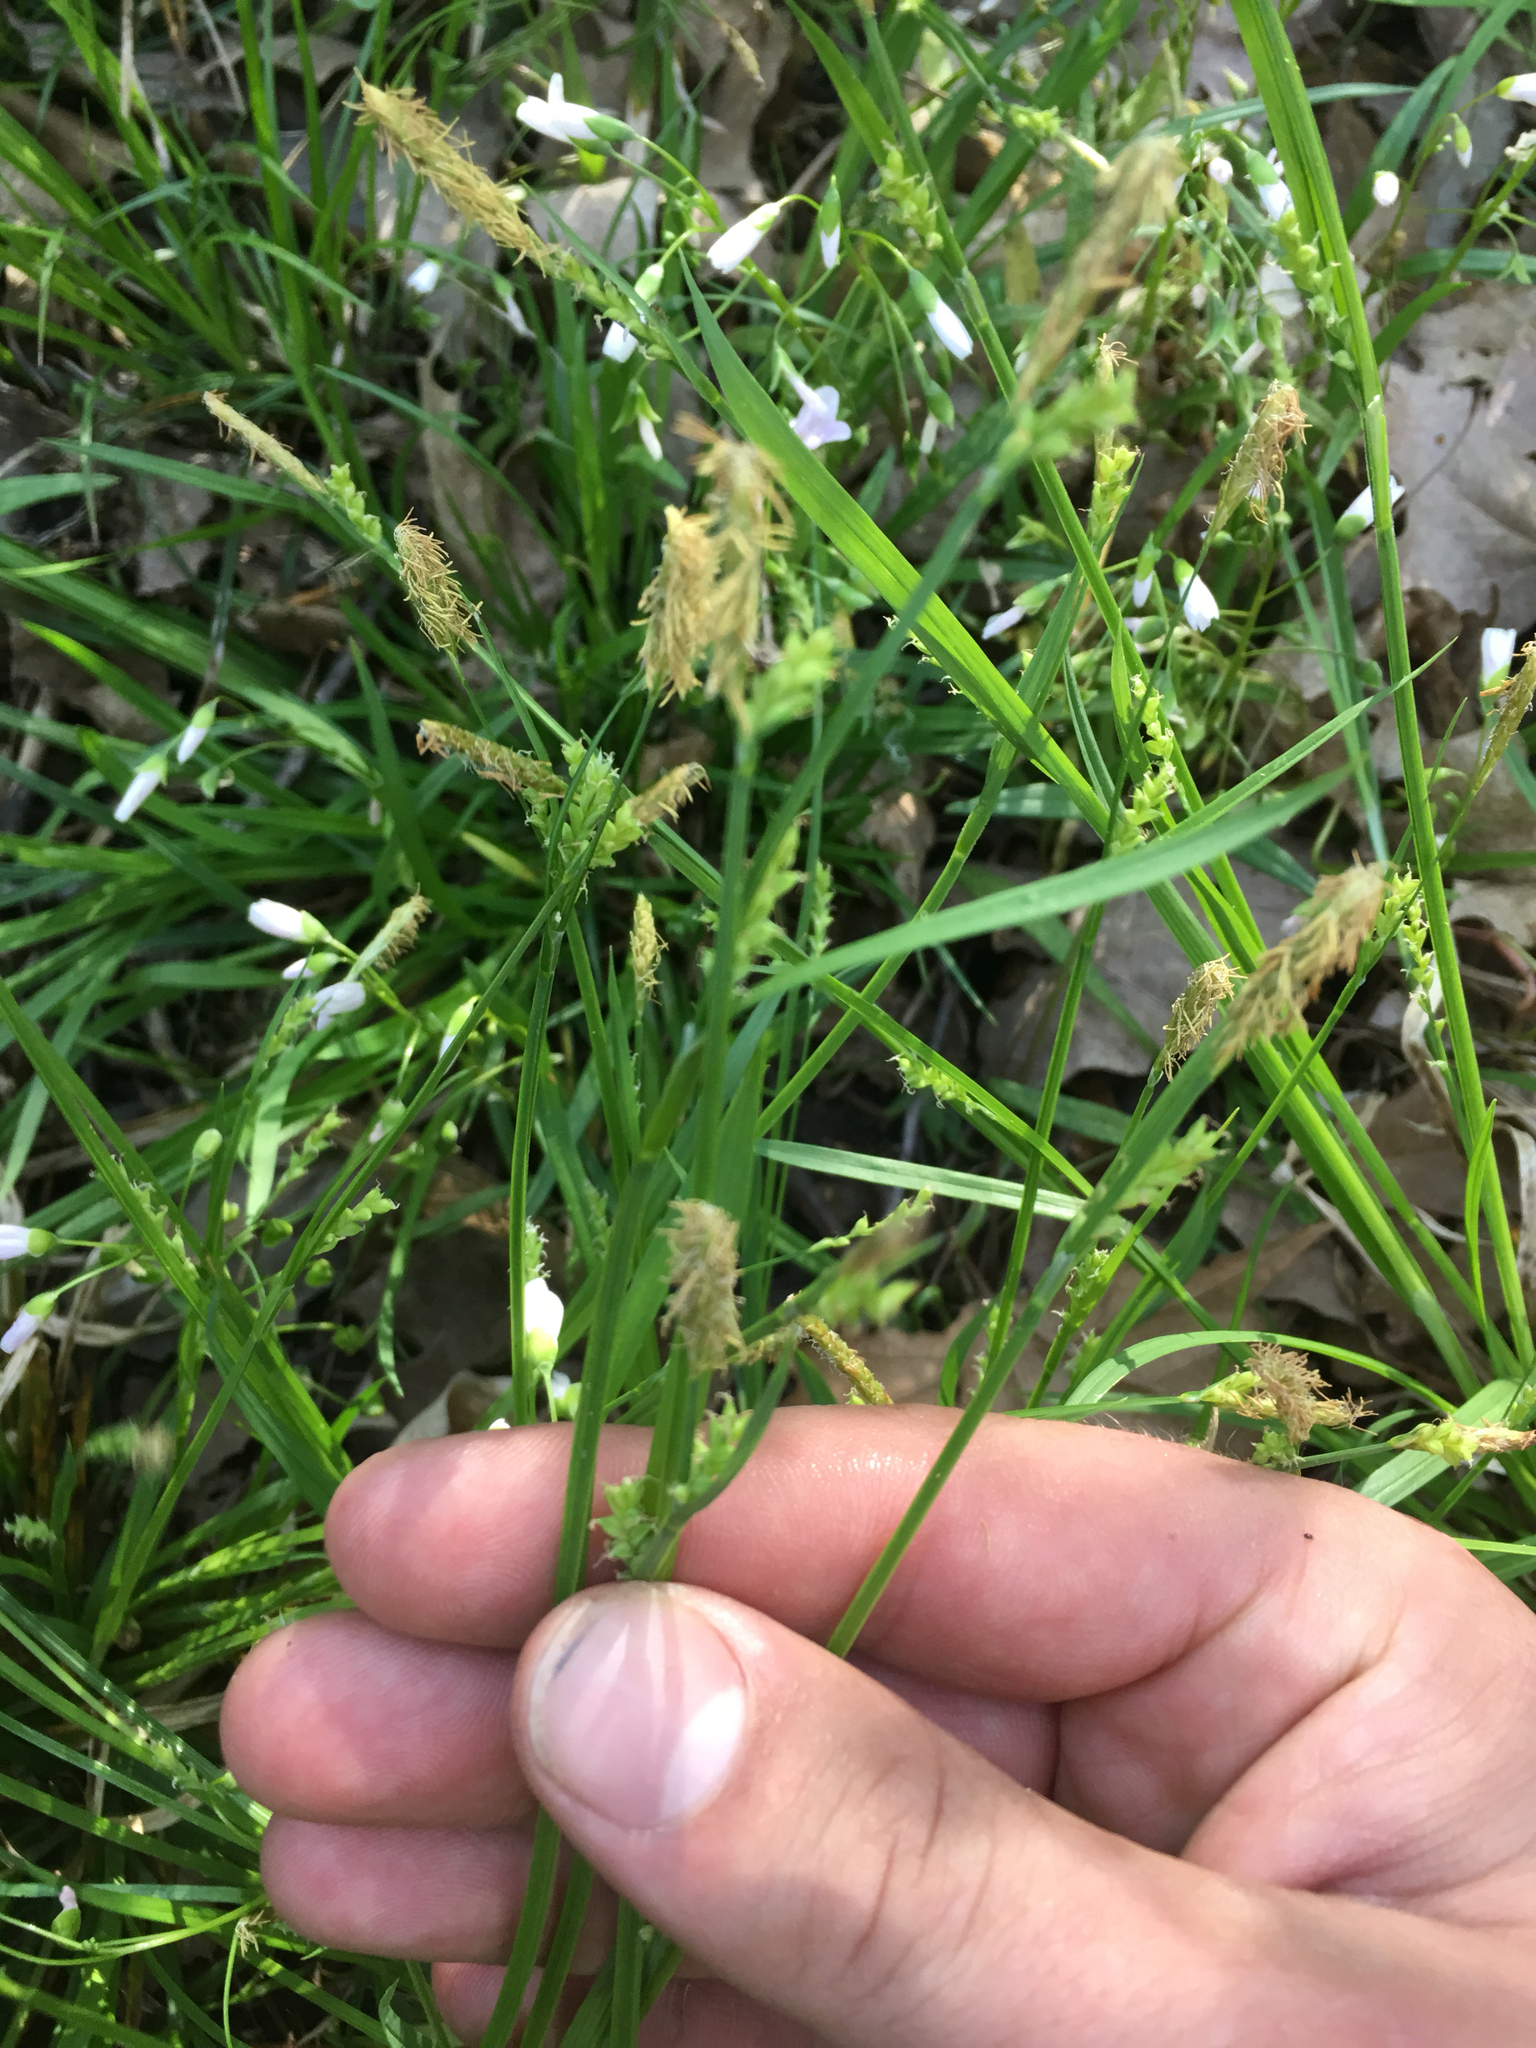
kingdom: Plantae
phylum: Tracheophyta
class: Liliopsida
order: Poales
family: Cyperaceae
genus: Carex
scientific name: Carex blanda
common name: Bland sedge
